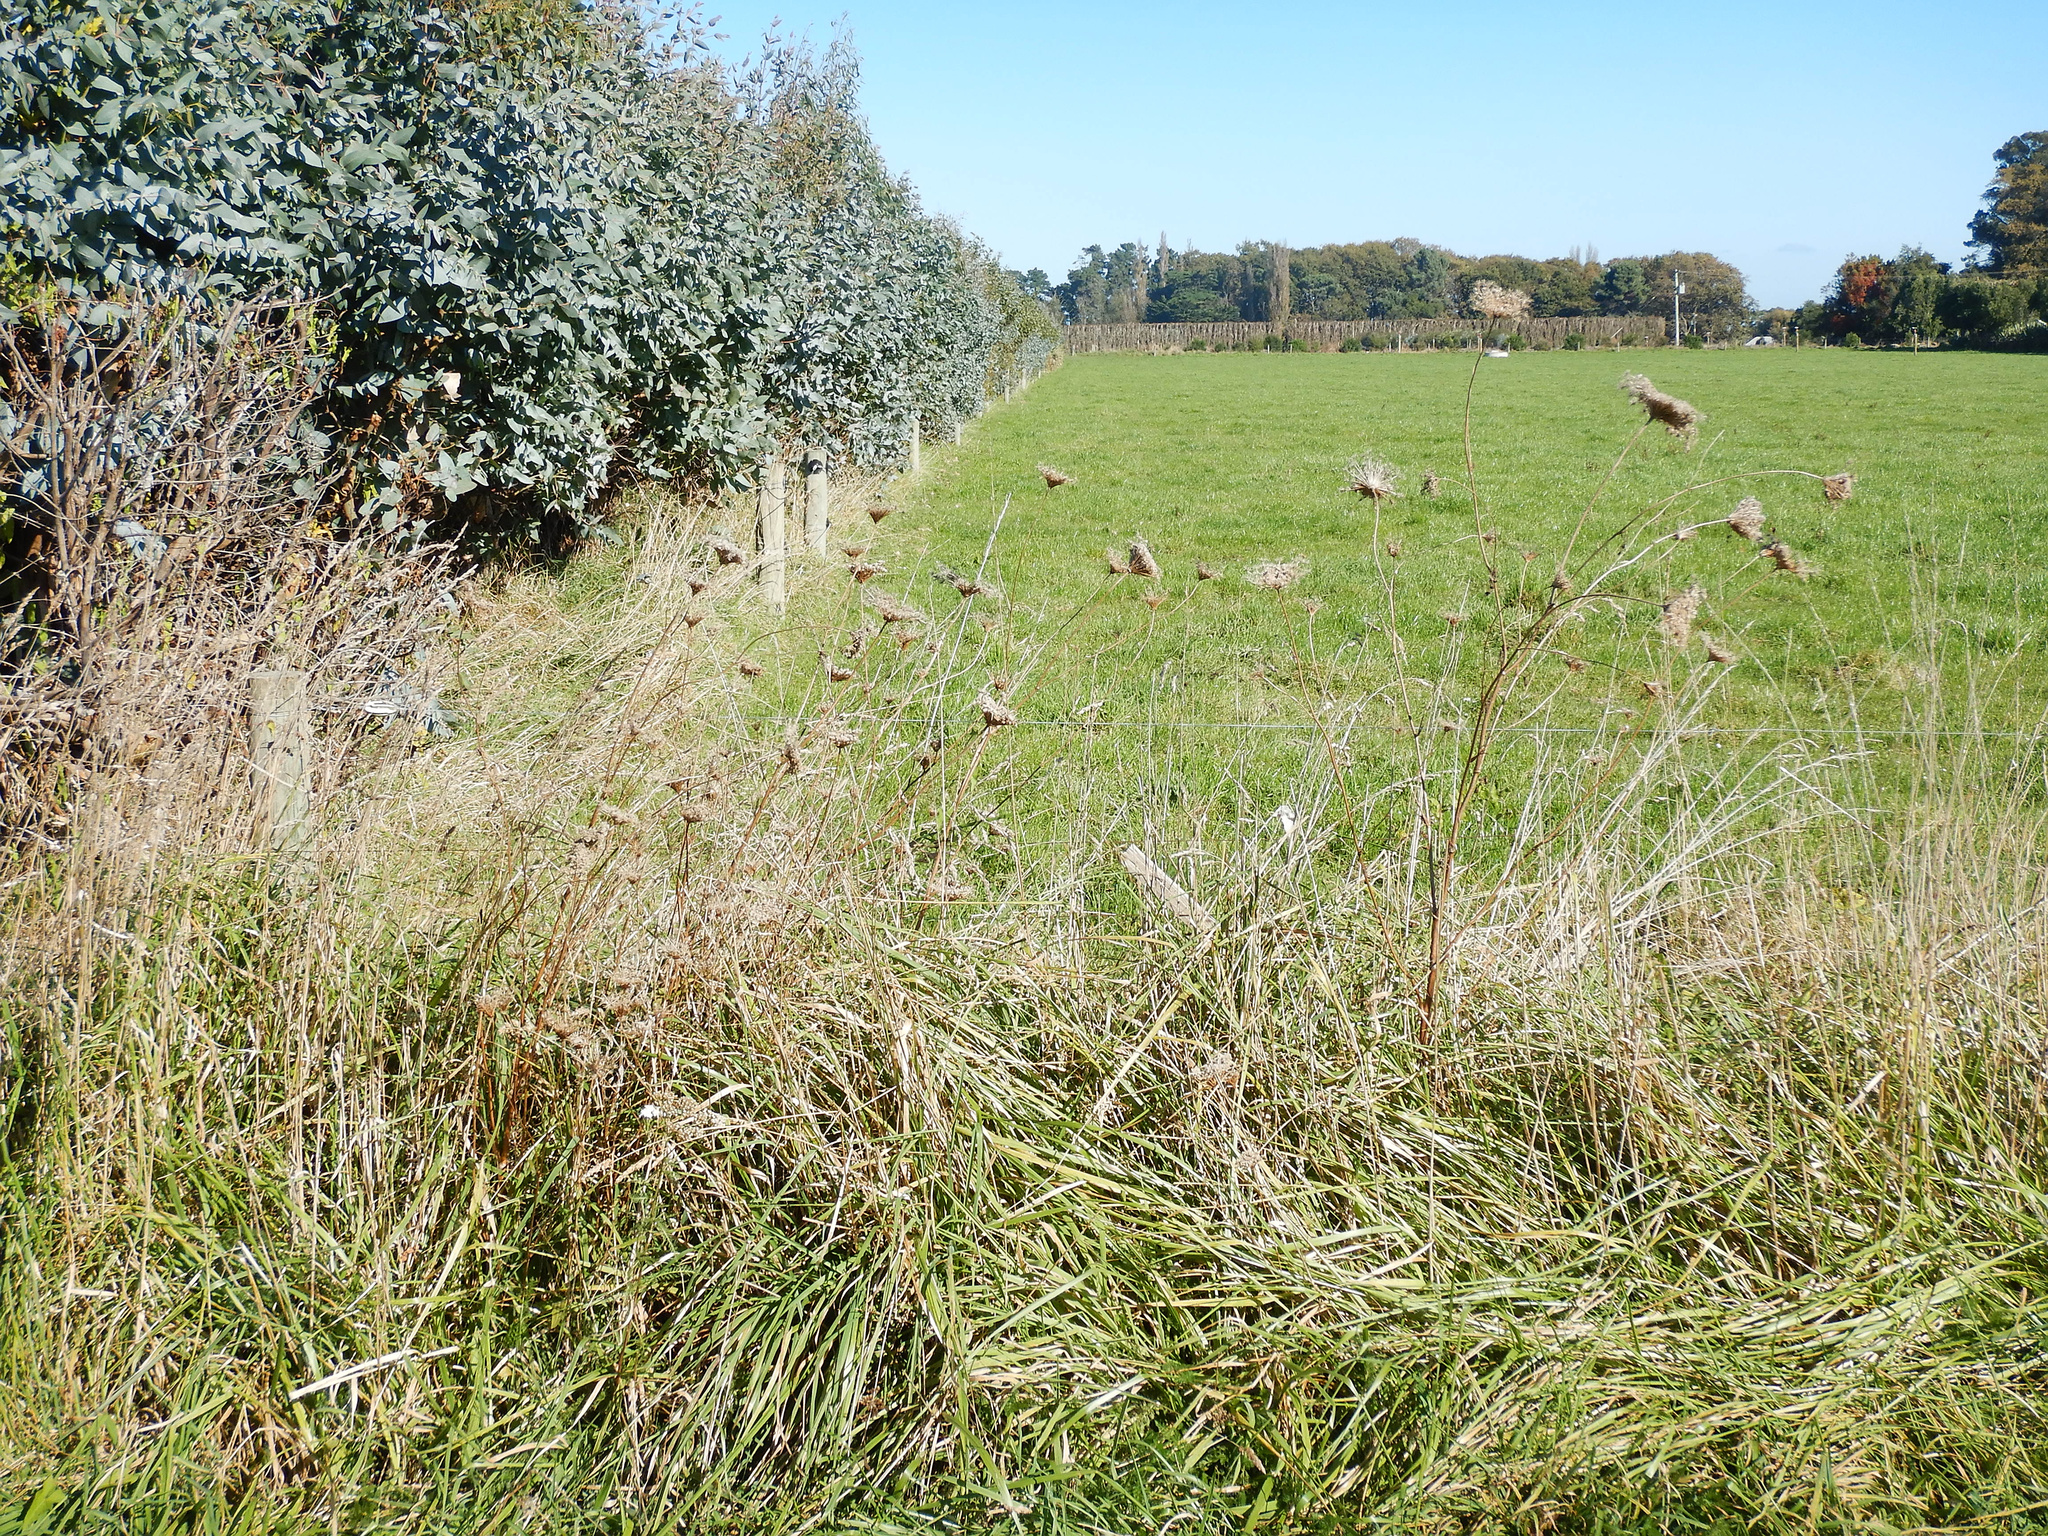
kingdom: Plantae
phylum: Tracheophyta
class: Magnoliopsida
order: Apiales
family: Apiaceae
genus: Daucus
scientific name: Daucus carota
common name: Wild carrot
